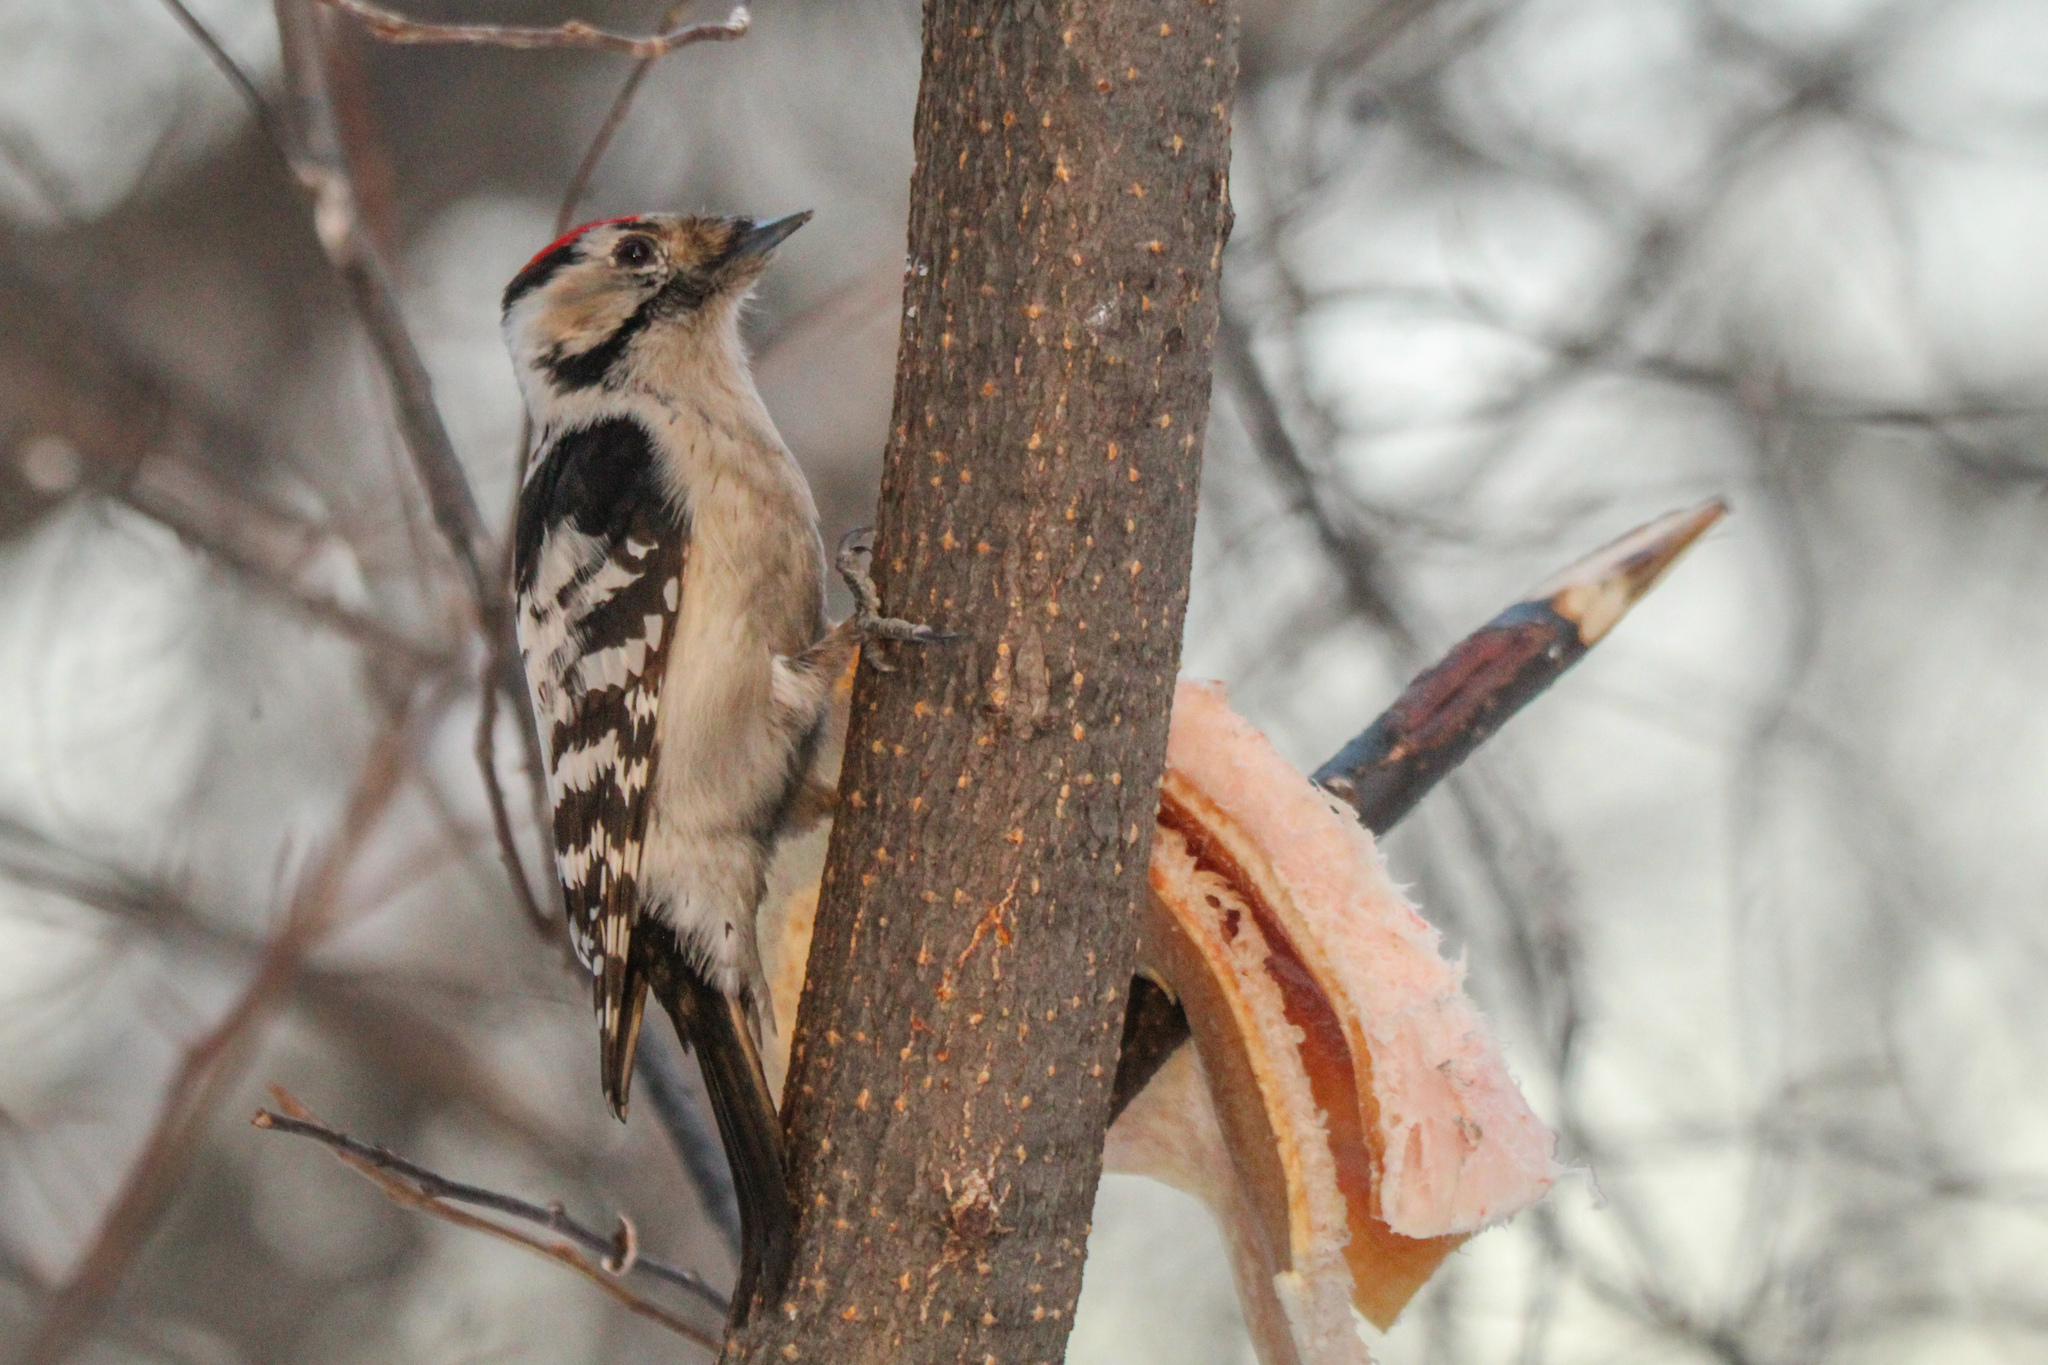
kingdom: Animalia
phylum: Chordata
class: Aves
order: Piciformes
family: Picidae
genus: Dryobates
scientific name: Dryobates minor
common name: Lesser spotted woodpecker
